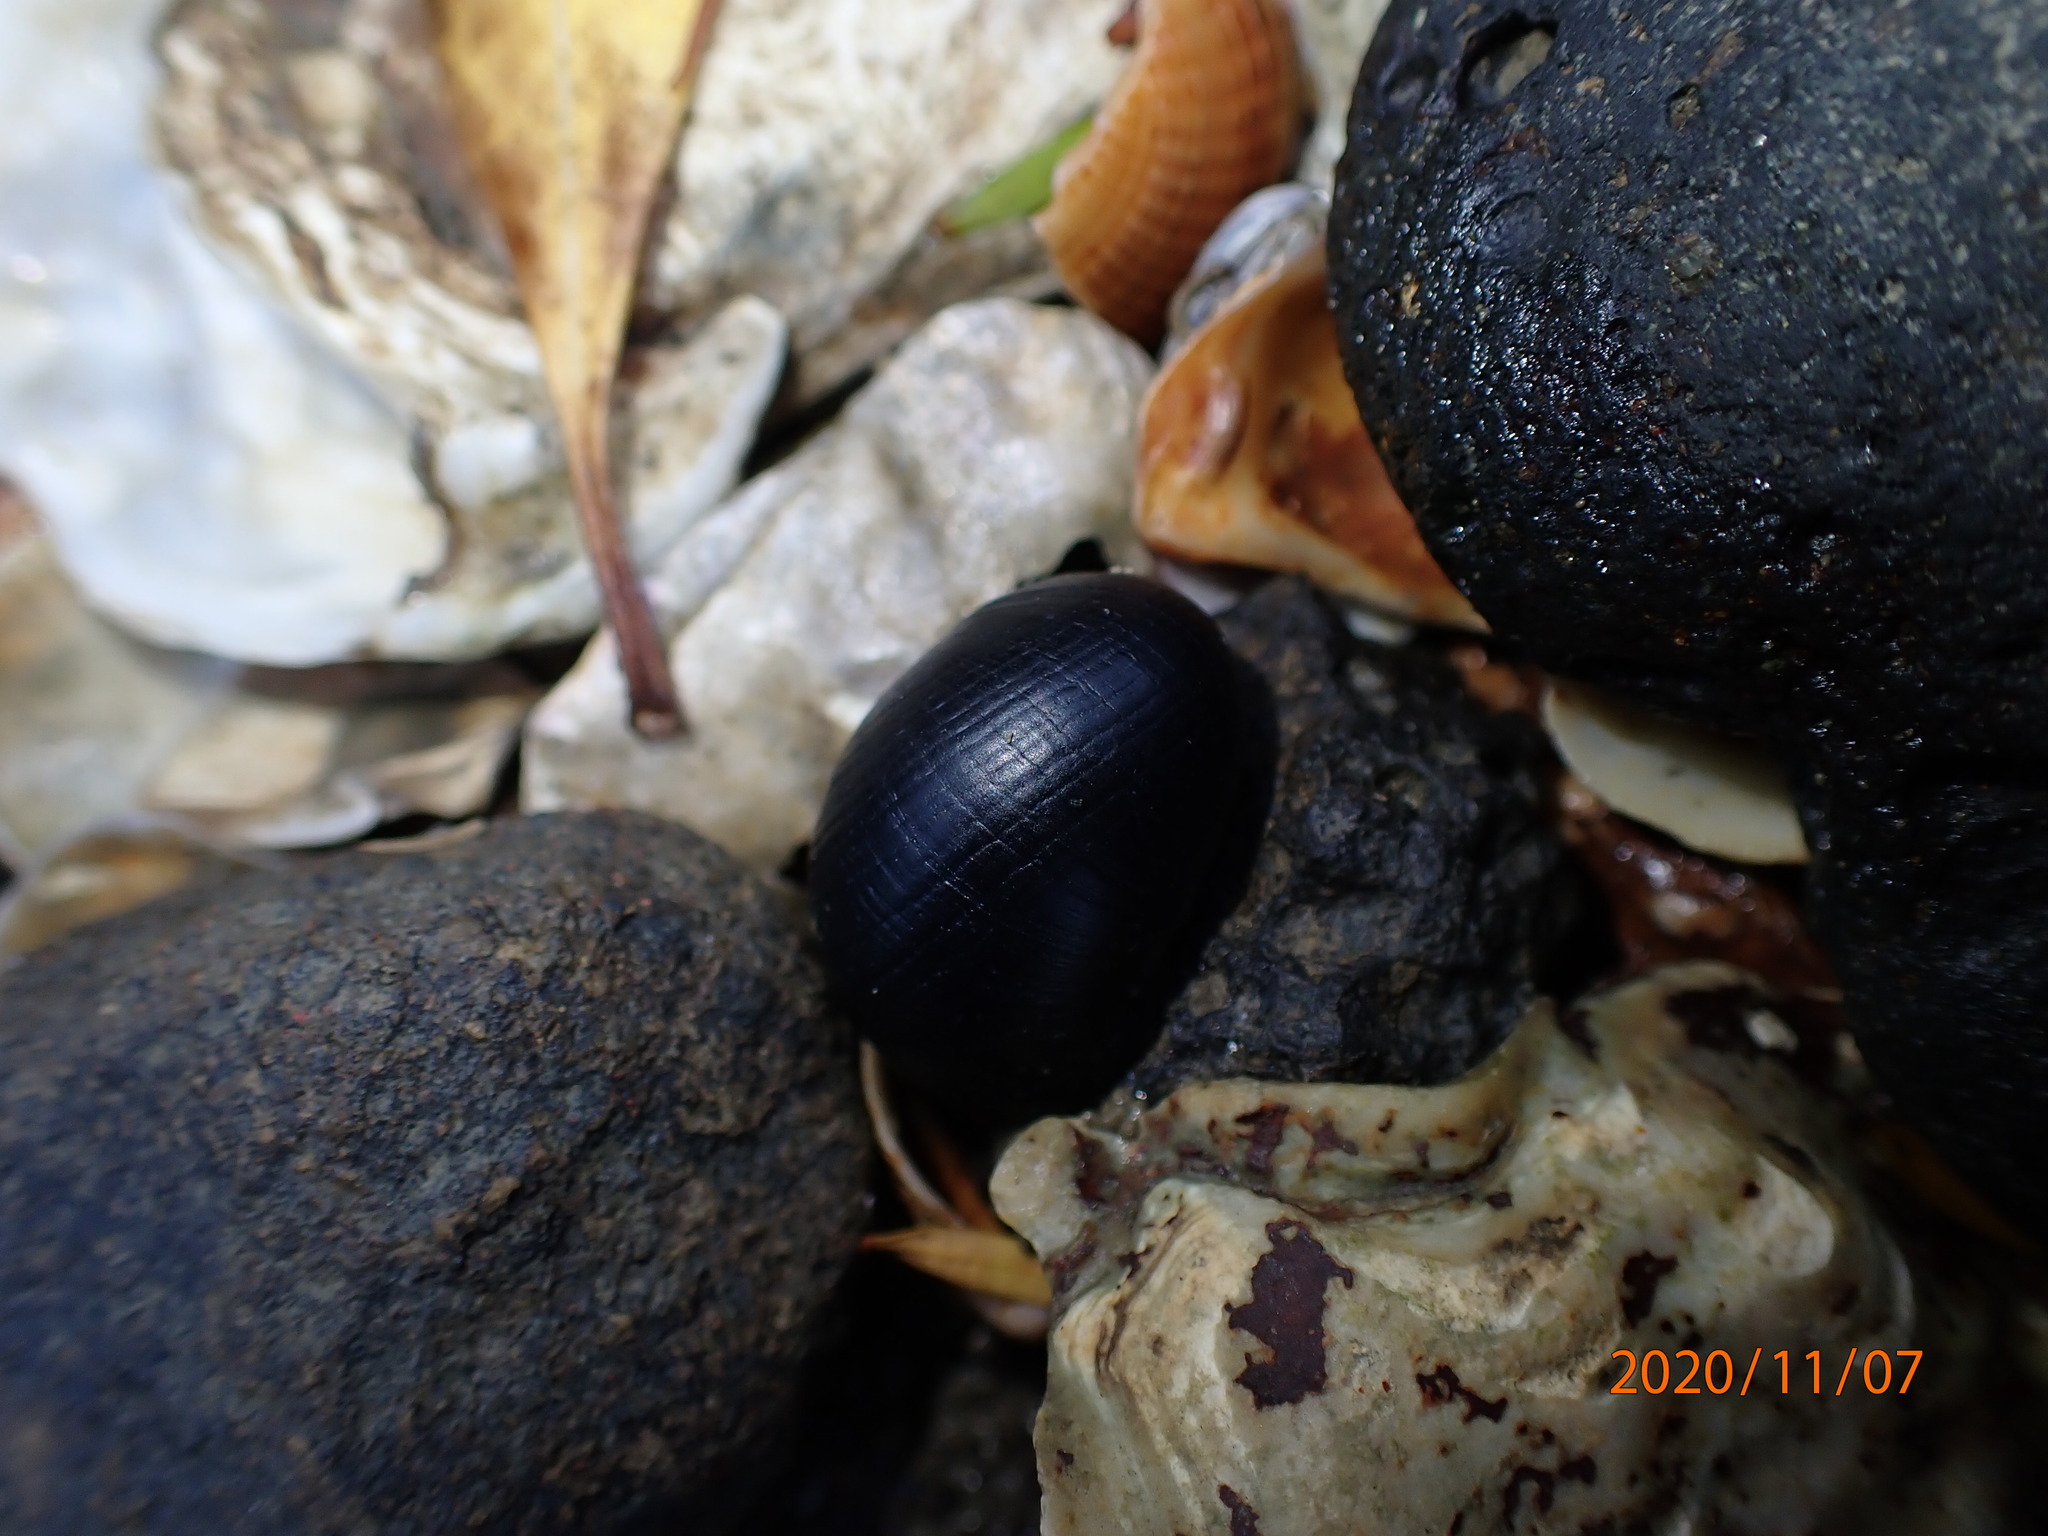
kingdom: Animalia
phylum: Mollusca
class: Gastropoda
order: Cycloneritida
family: Neritidae
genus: Nerita
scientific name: Nerita melanotragus
